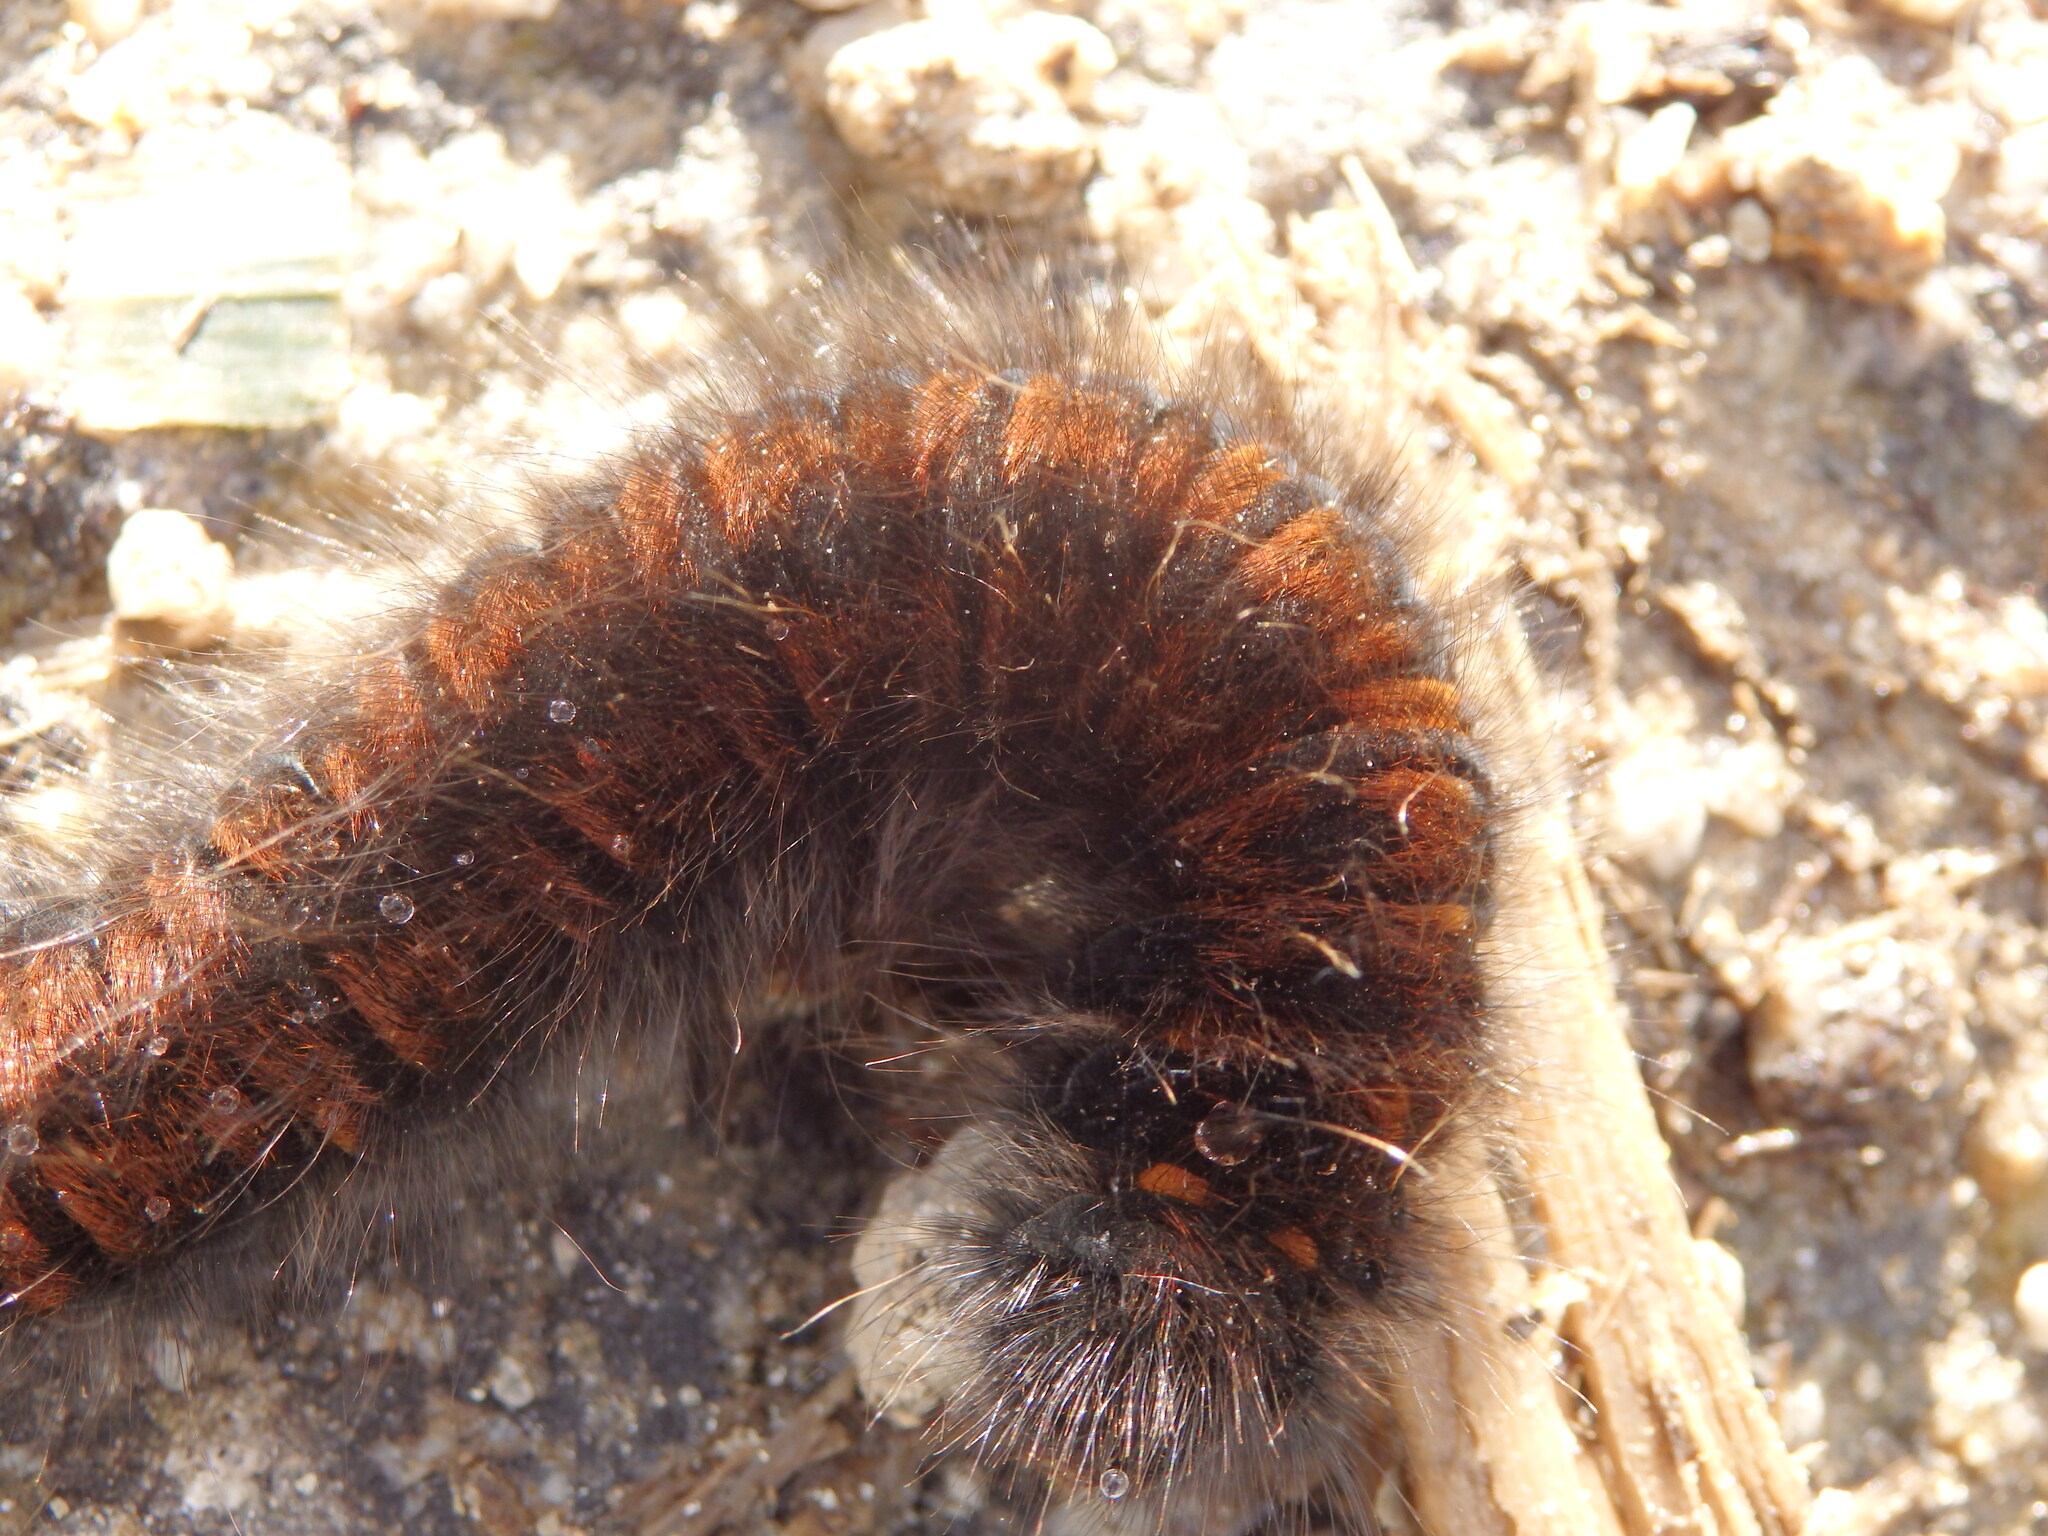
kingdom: Animalia
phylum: Arthropoda
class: Insecta
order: Lepidoptera
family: Lasiocampidae
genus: Macrothylacia
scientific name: Macrothylacia rubi
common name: Fox moth
